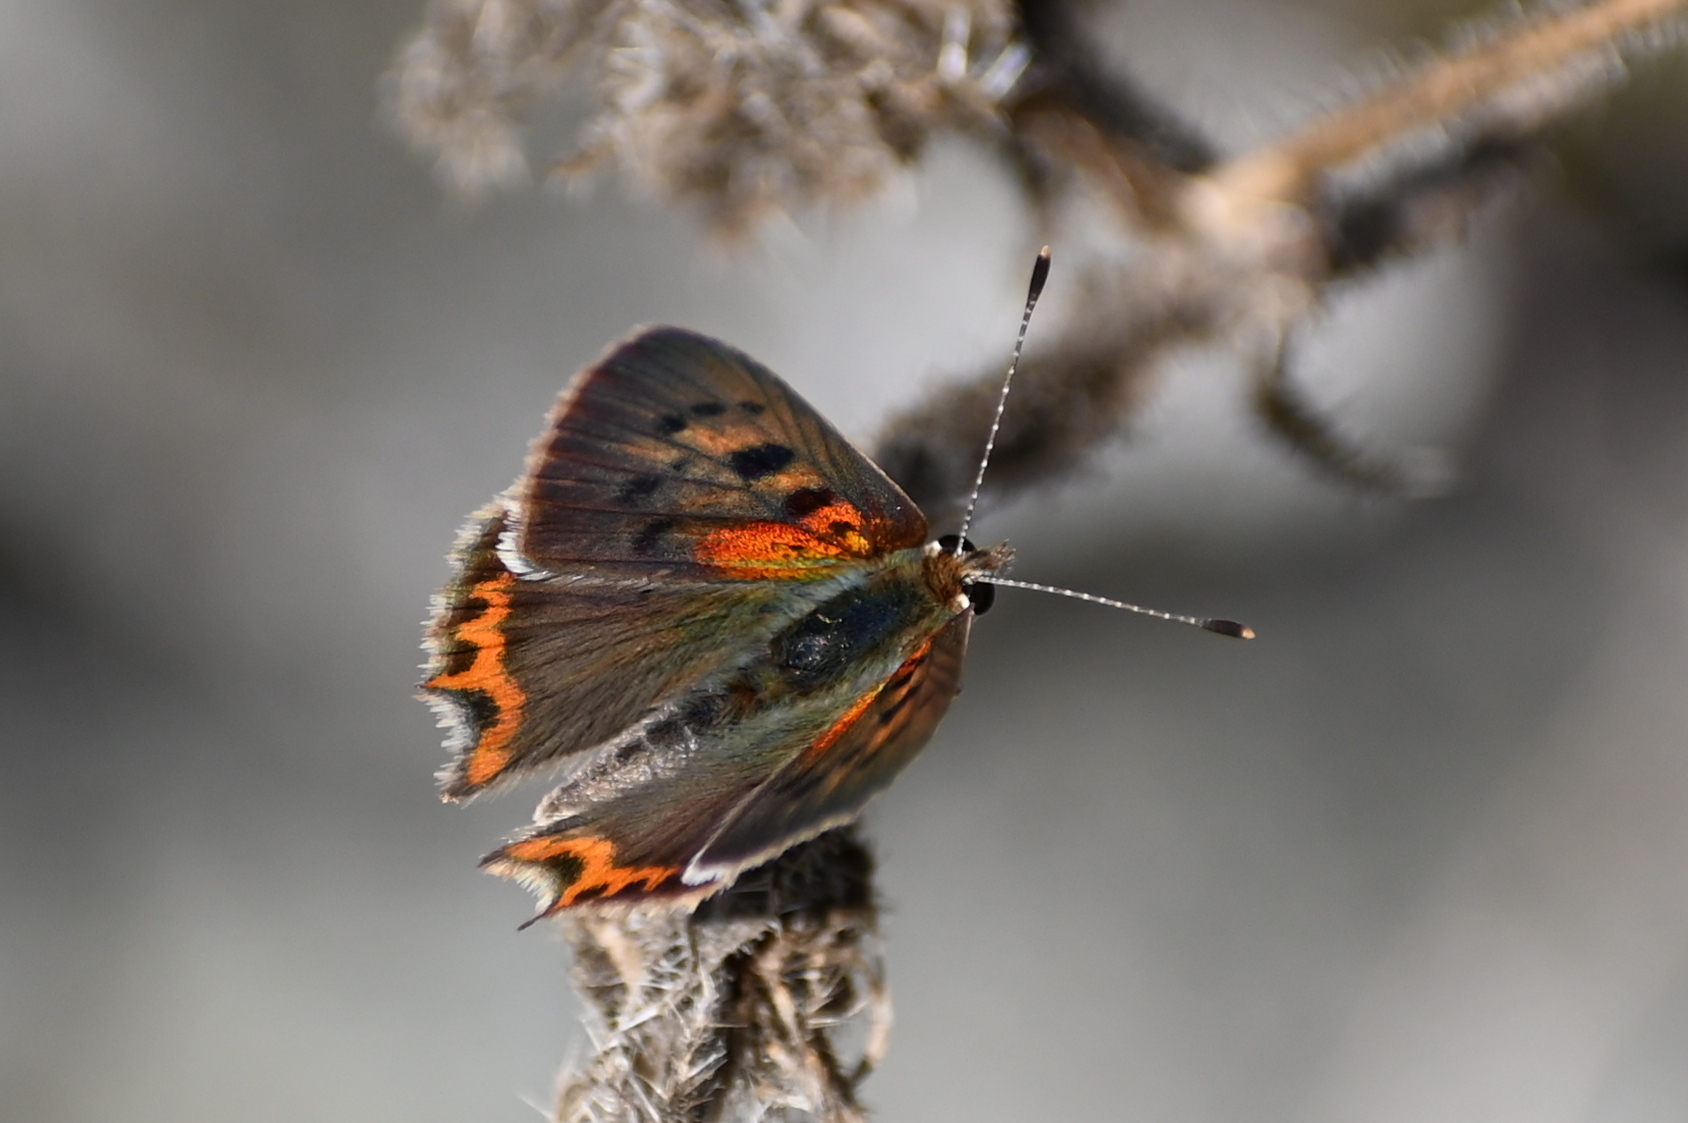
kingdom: Animalia
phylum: Arthropoda
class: Insecta
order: Lepidoptera
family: Lycaenidae
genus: Lycaena
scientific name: Lycaena phlaeas
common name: Small copper
